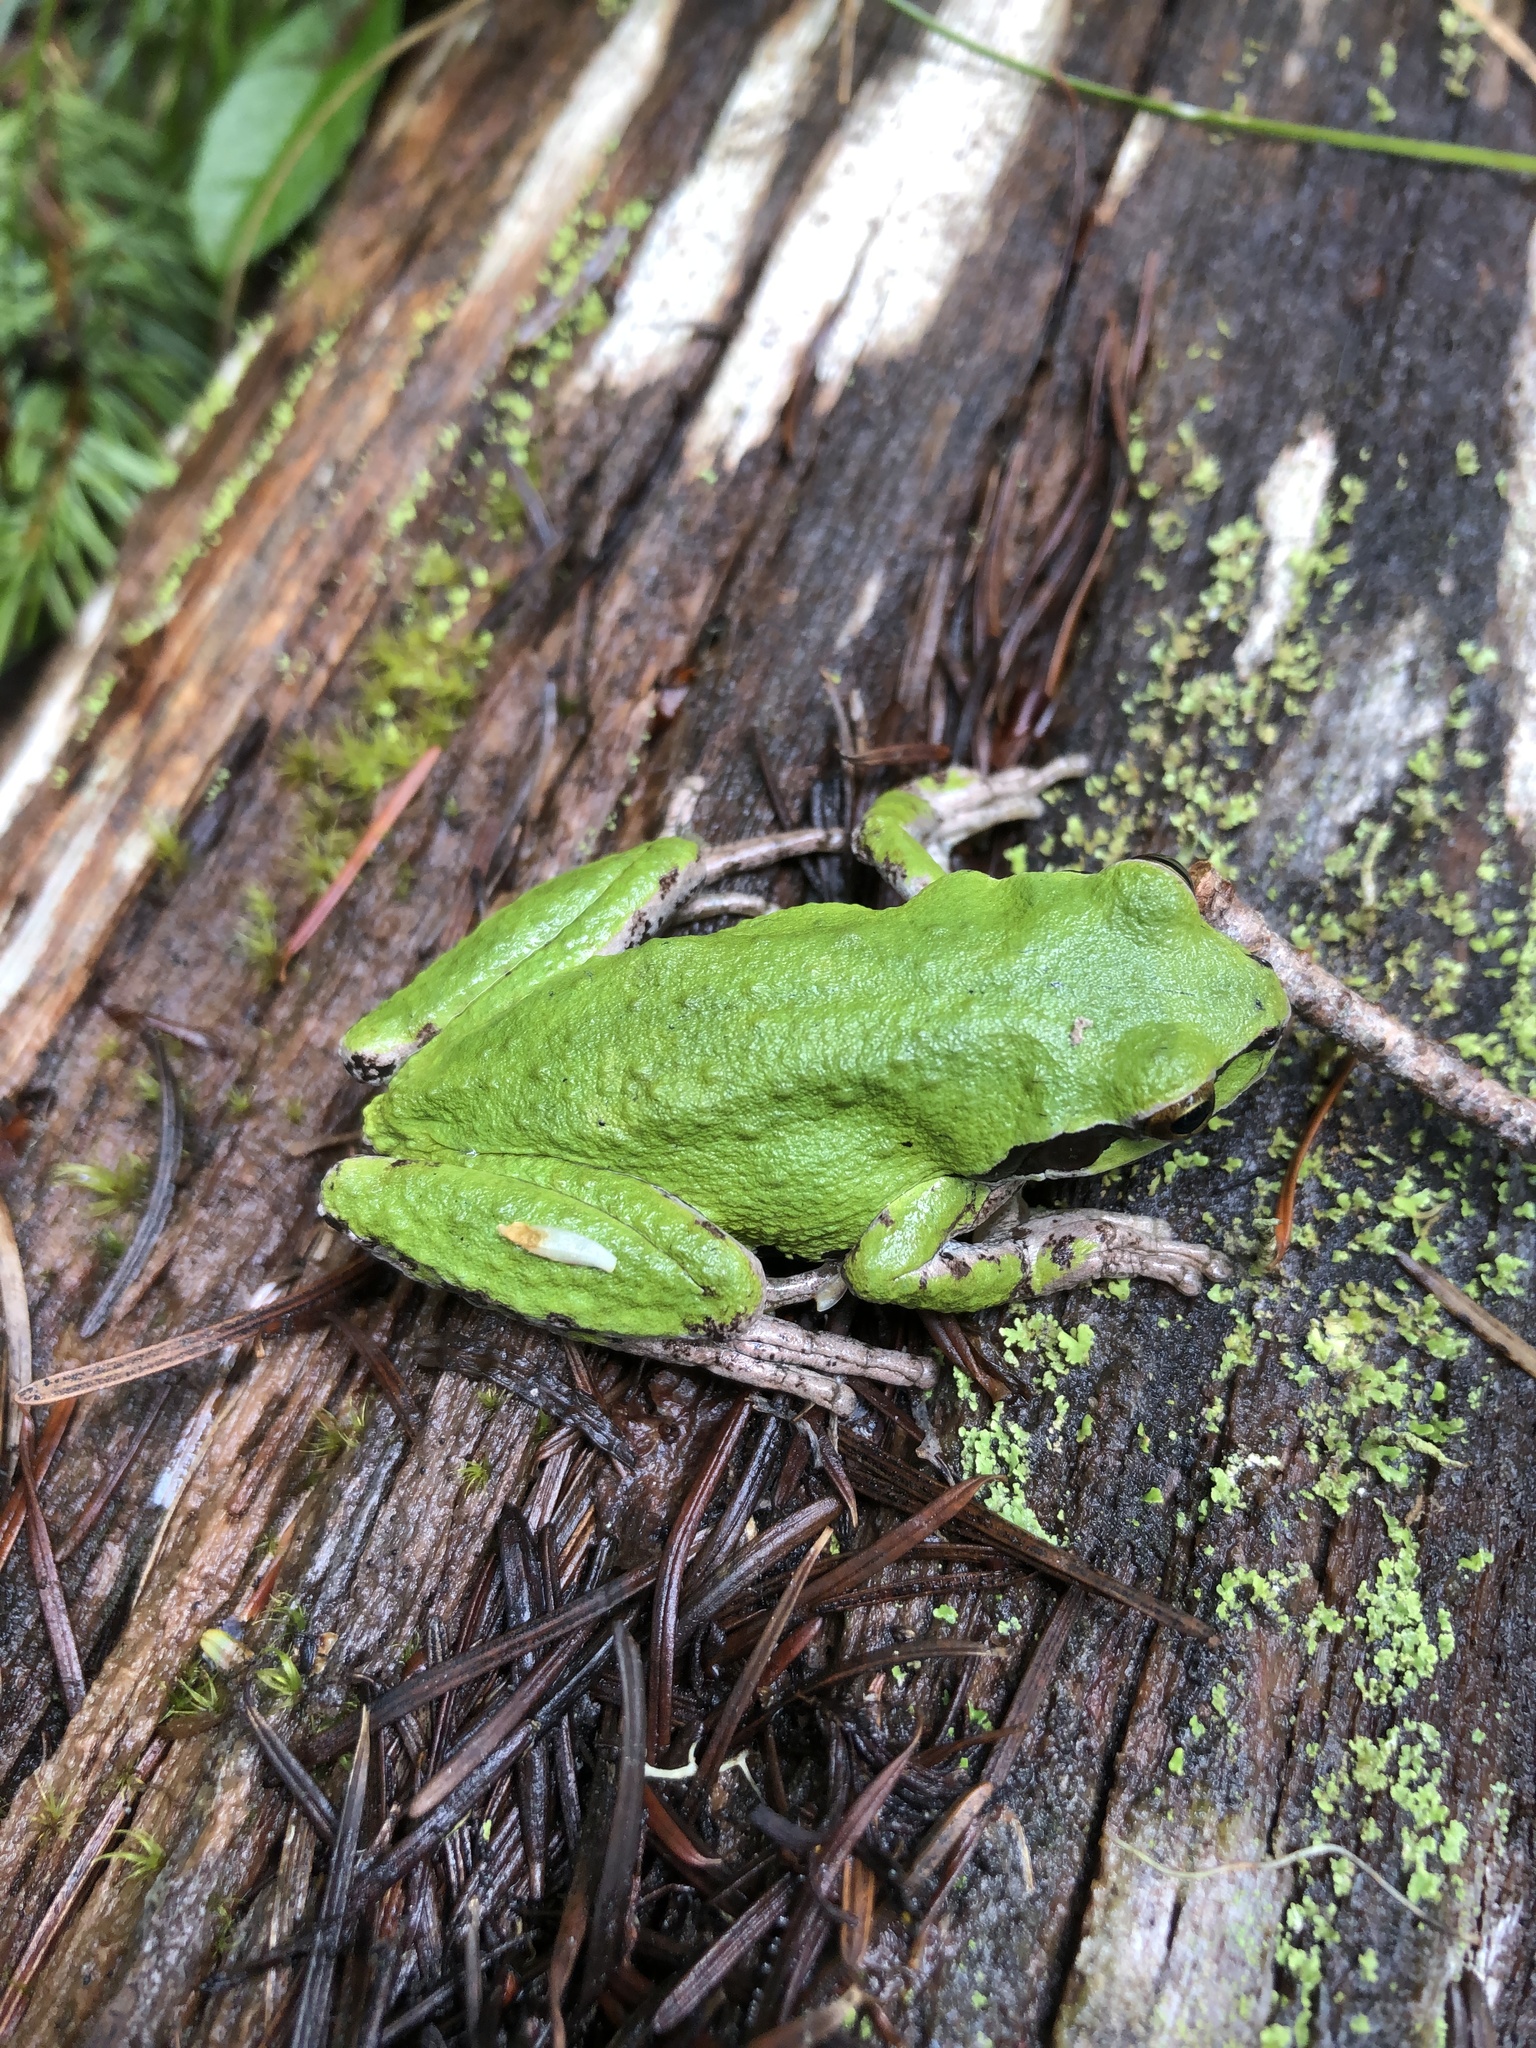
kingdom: Animalia
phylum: Chordata
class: Amphibia
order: Anura
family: Hylidae
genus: Pseudacris
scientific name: Pseudacris regilla
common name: Pacific chorus frog
